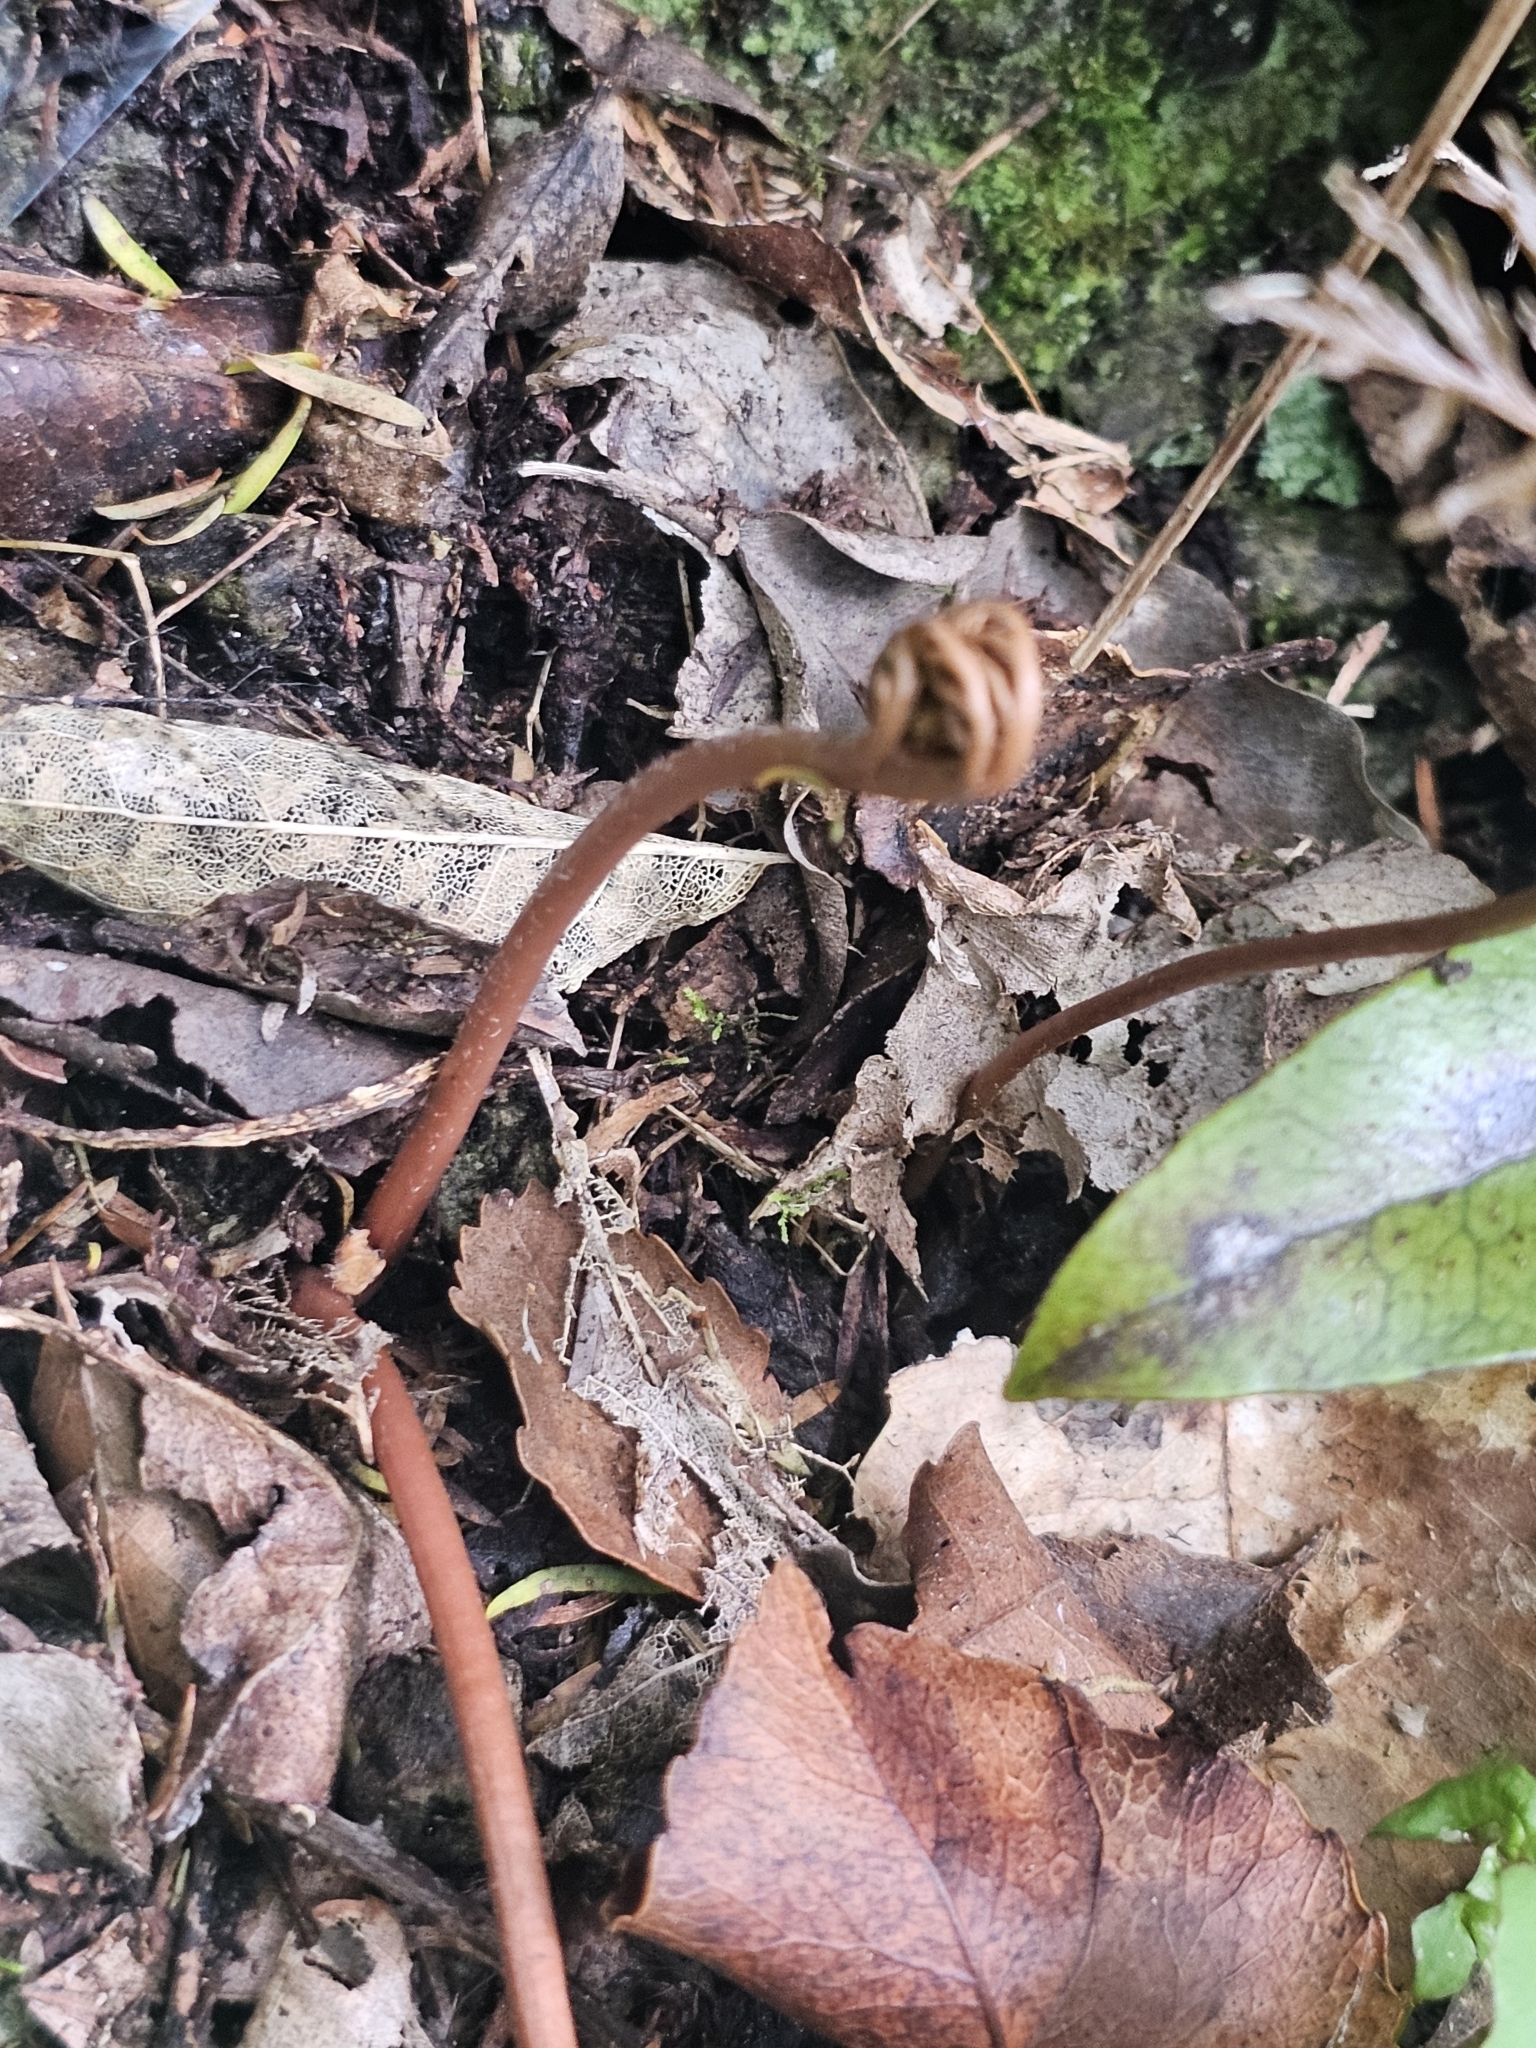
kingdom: Plantae
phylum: Tracheophyta
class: Polypodiopsida
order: Ophioglossales
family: Ophioglossaceae
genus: Sceptridium
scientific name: Sceptridium biforme
